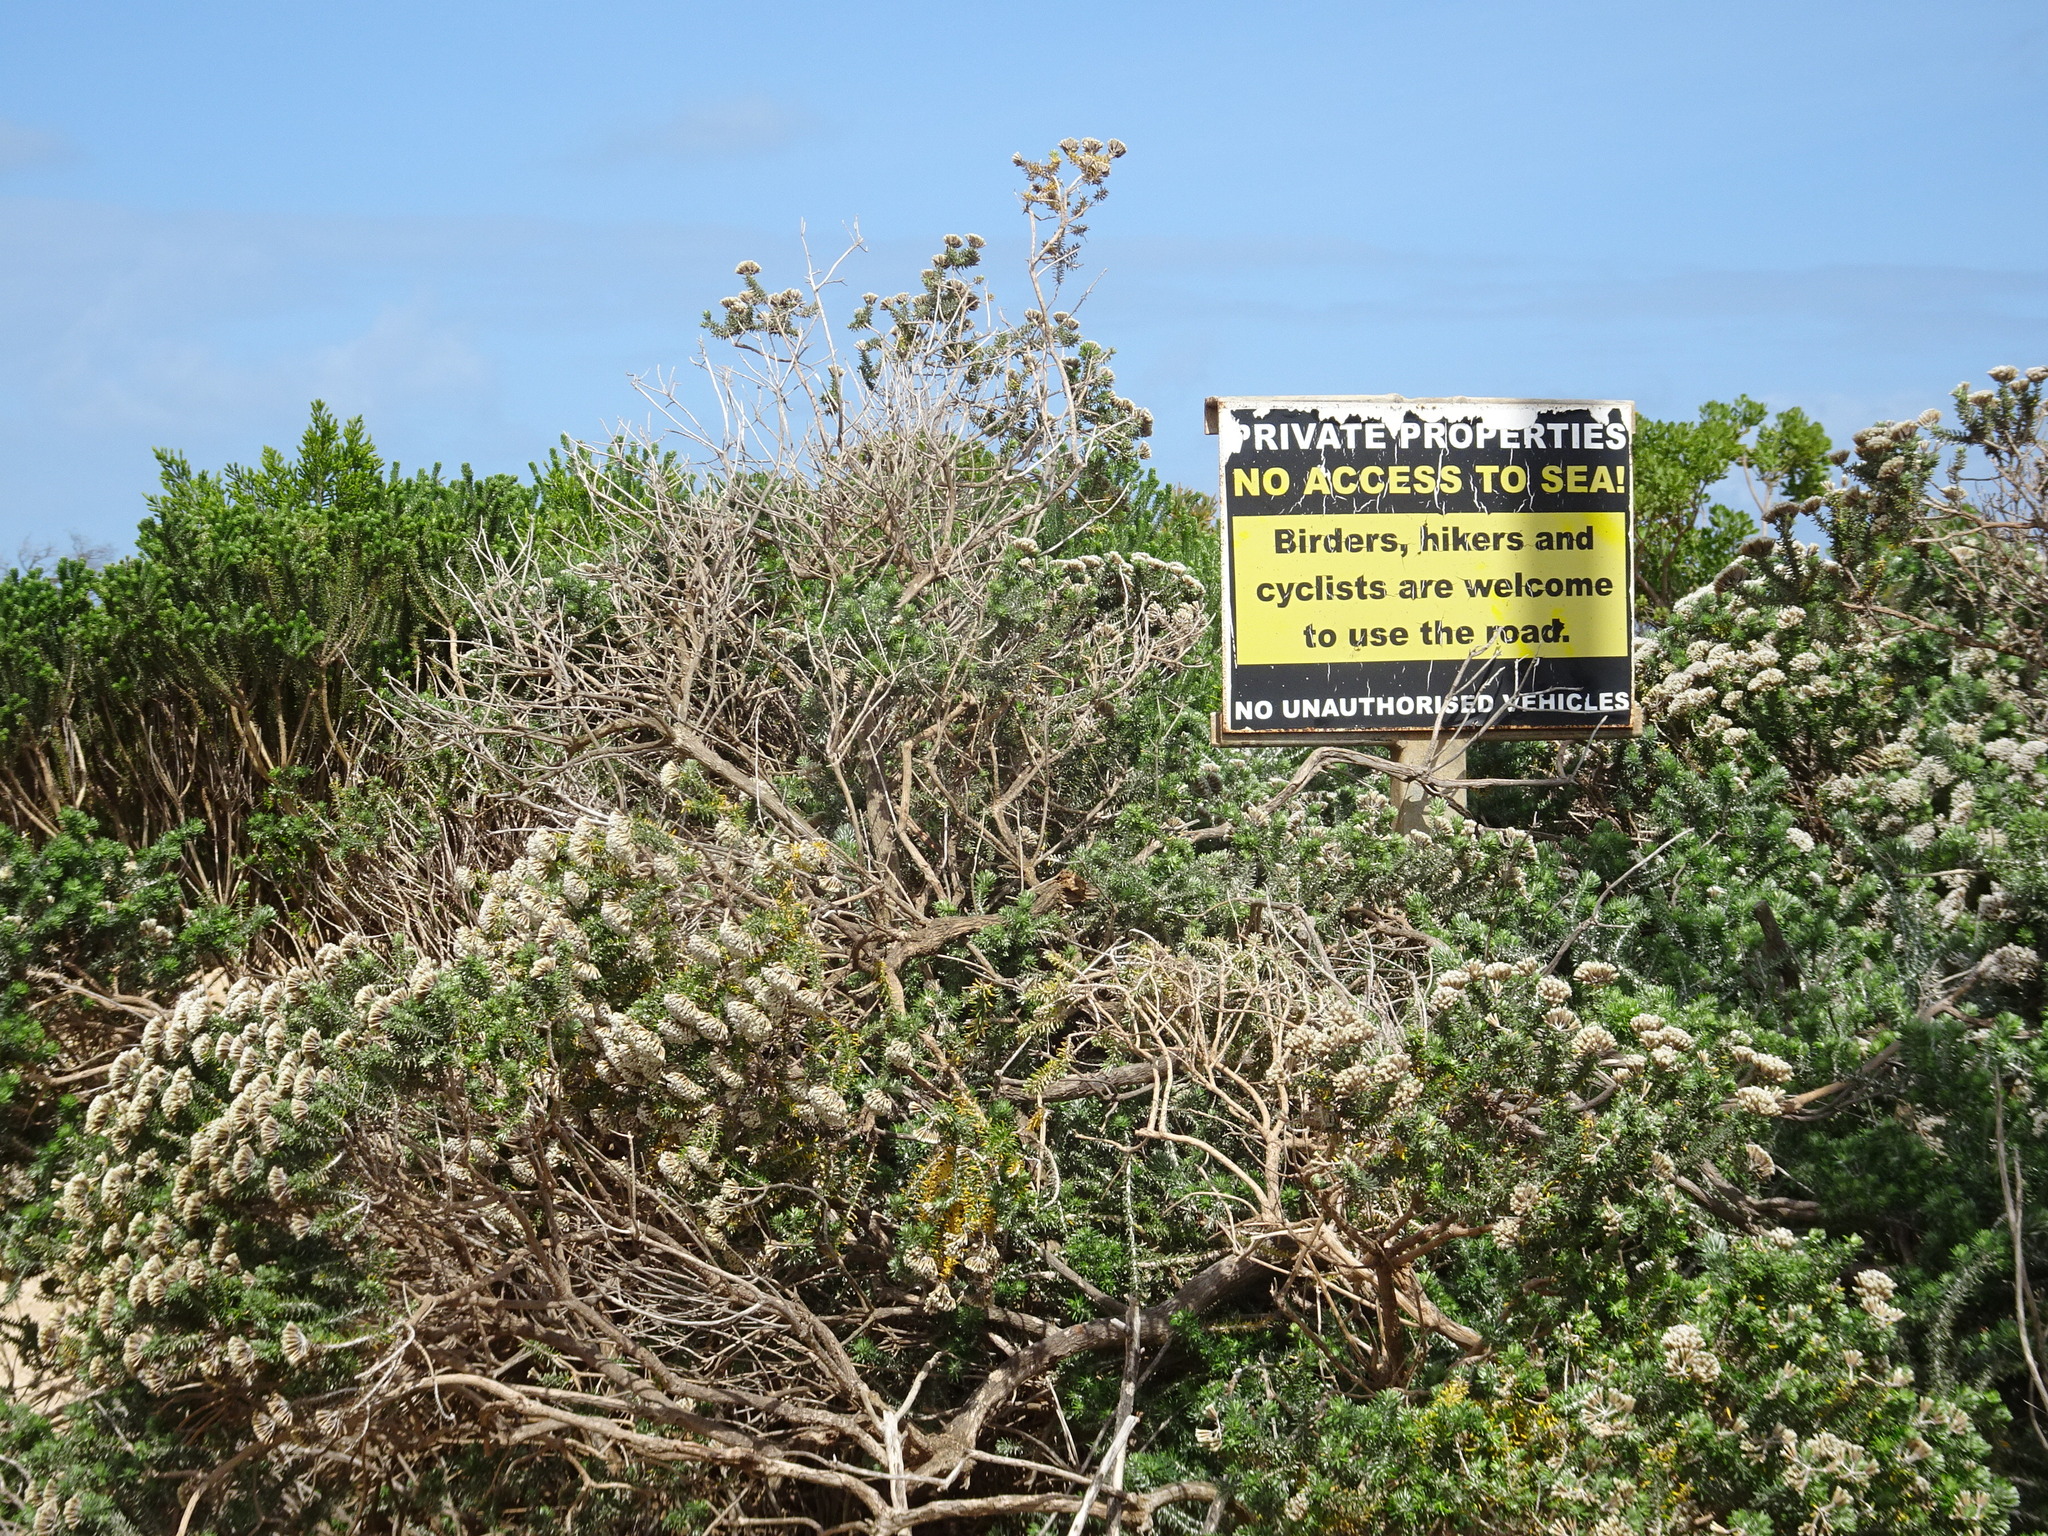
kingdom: Plantae
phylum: Tracheophyta
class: Magnoliopsida
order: Asterales
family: Asteraceae
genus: Metalasia
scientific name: Metalasia muricata
